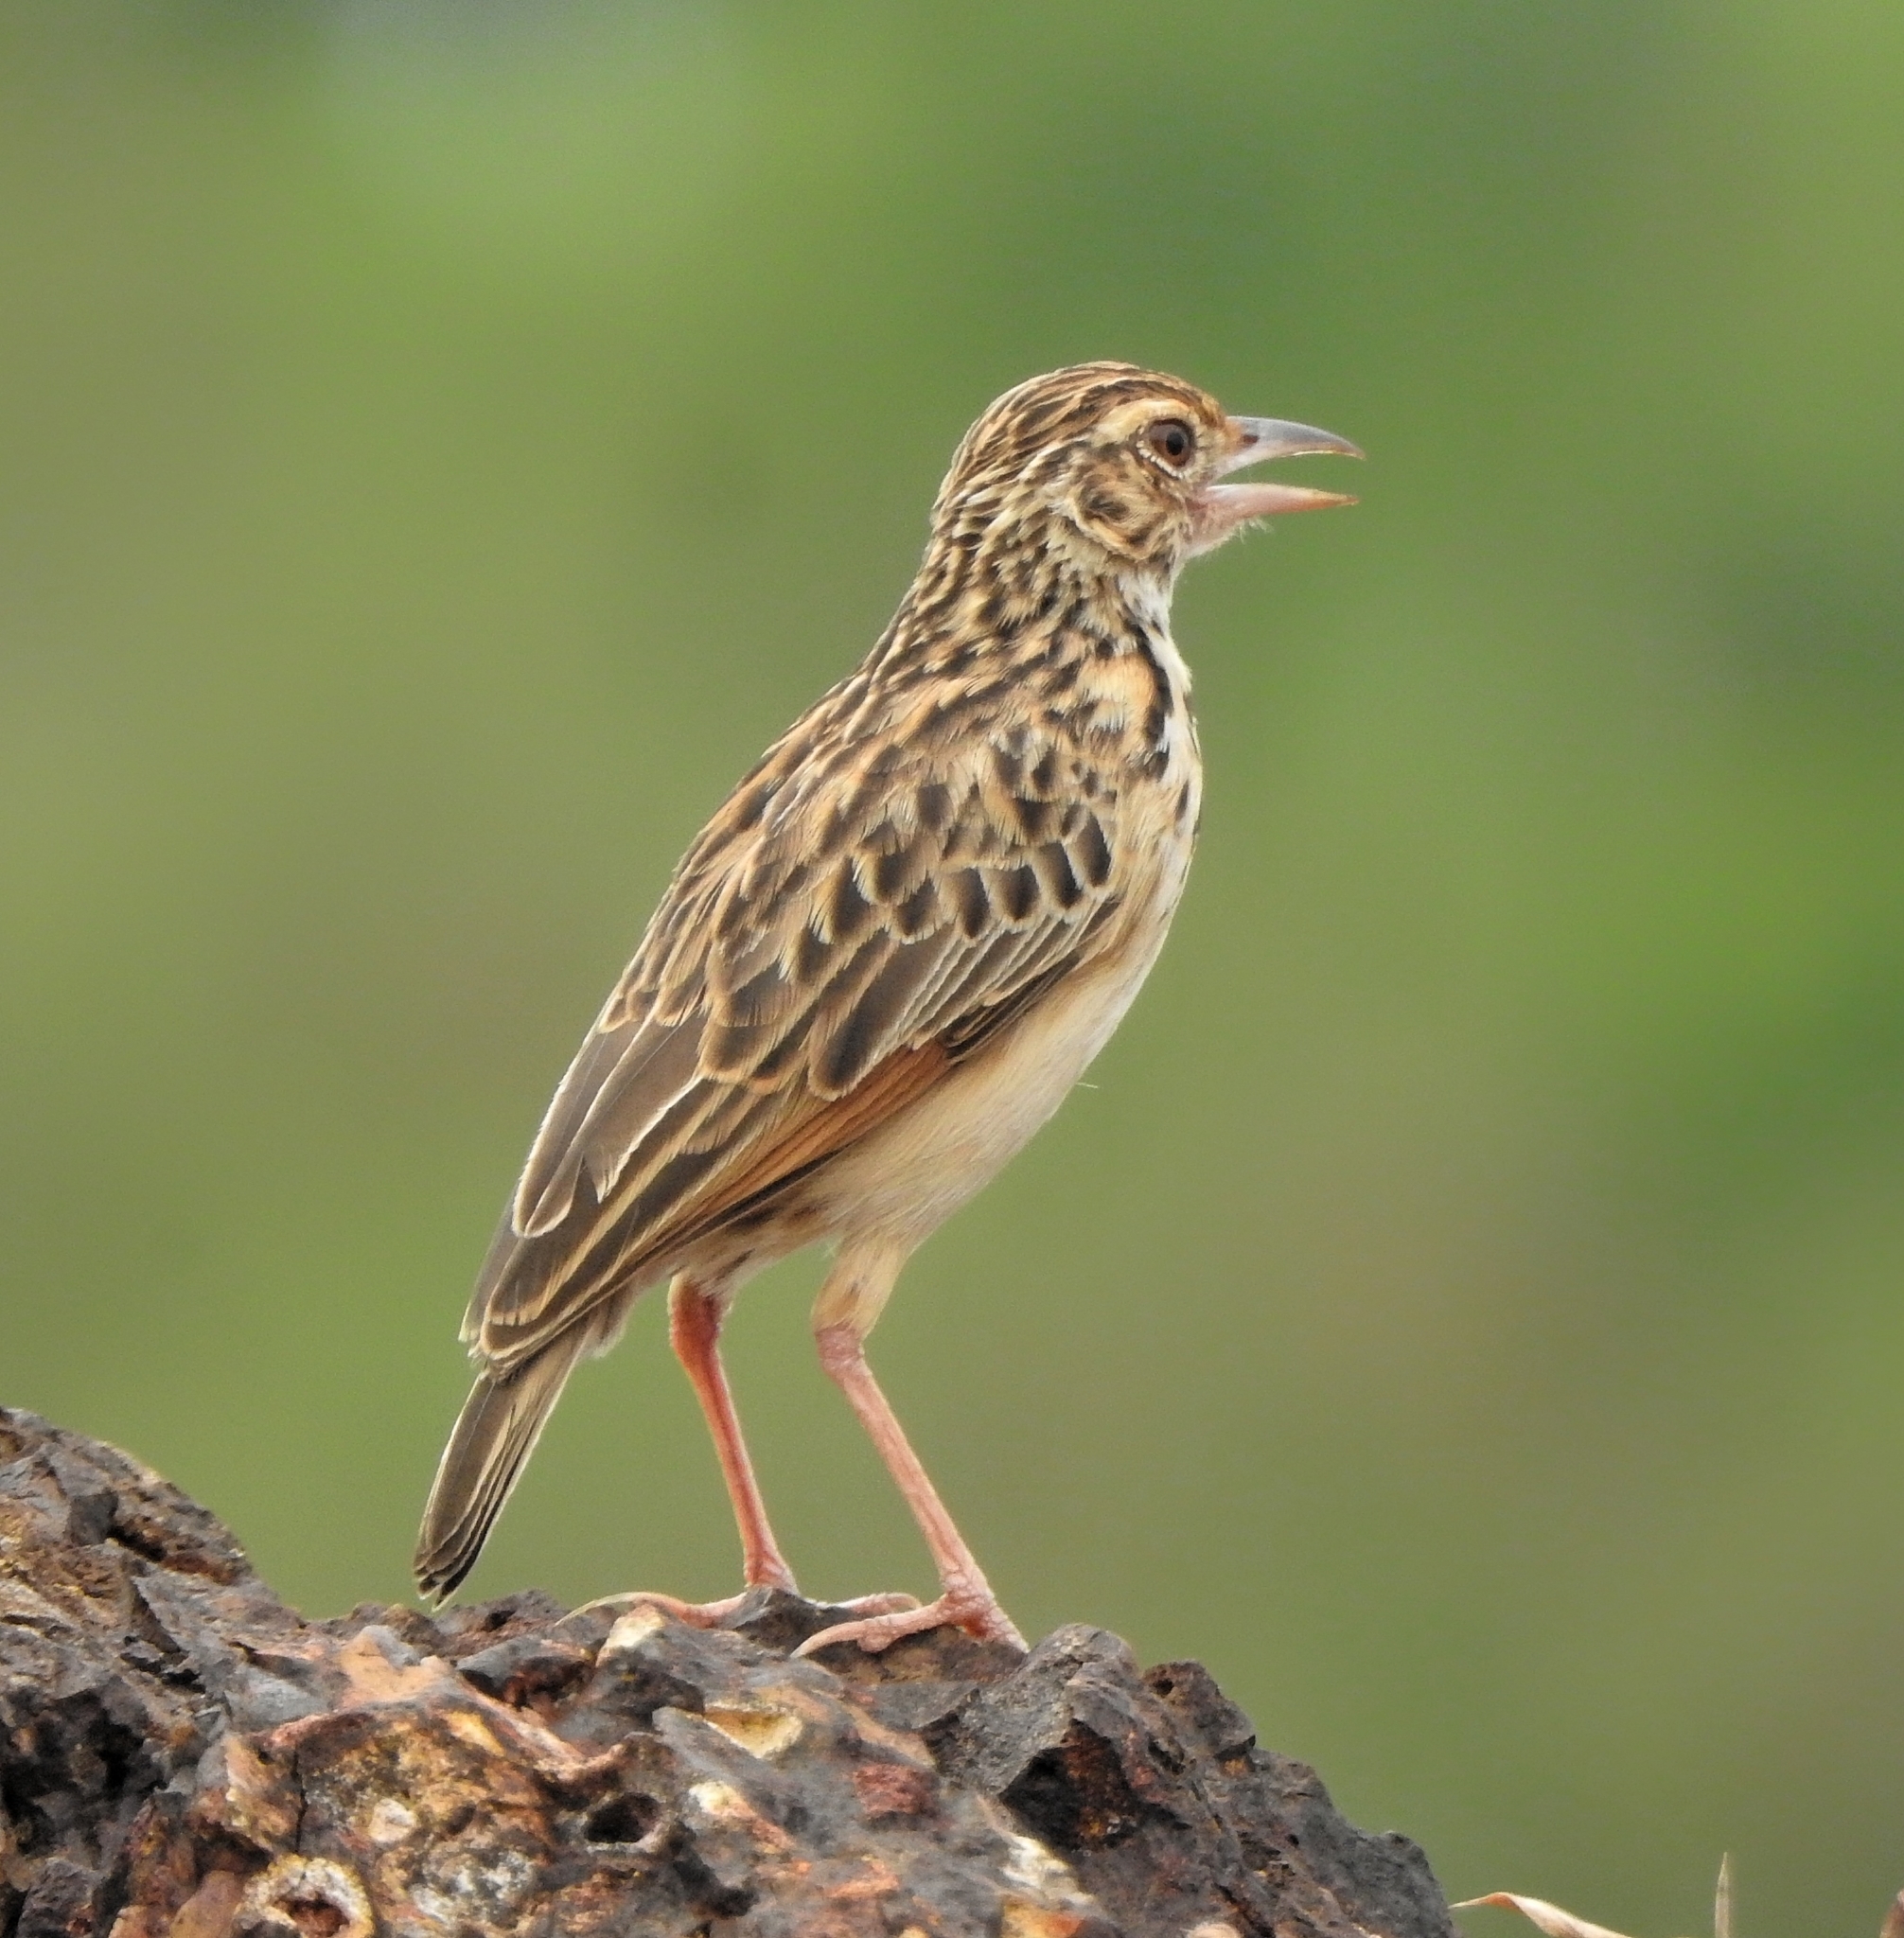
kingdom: Animalia
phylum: Chordata
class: Aves
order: Passeriformes
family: Alaudidae
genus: Mirafra
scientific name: Mirafra affinis
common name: Jerdon's bushlark
